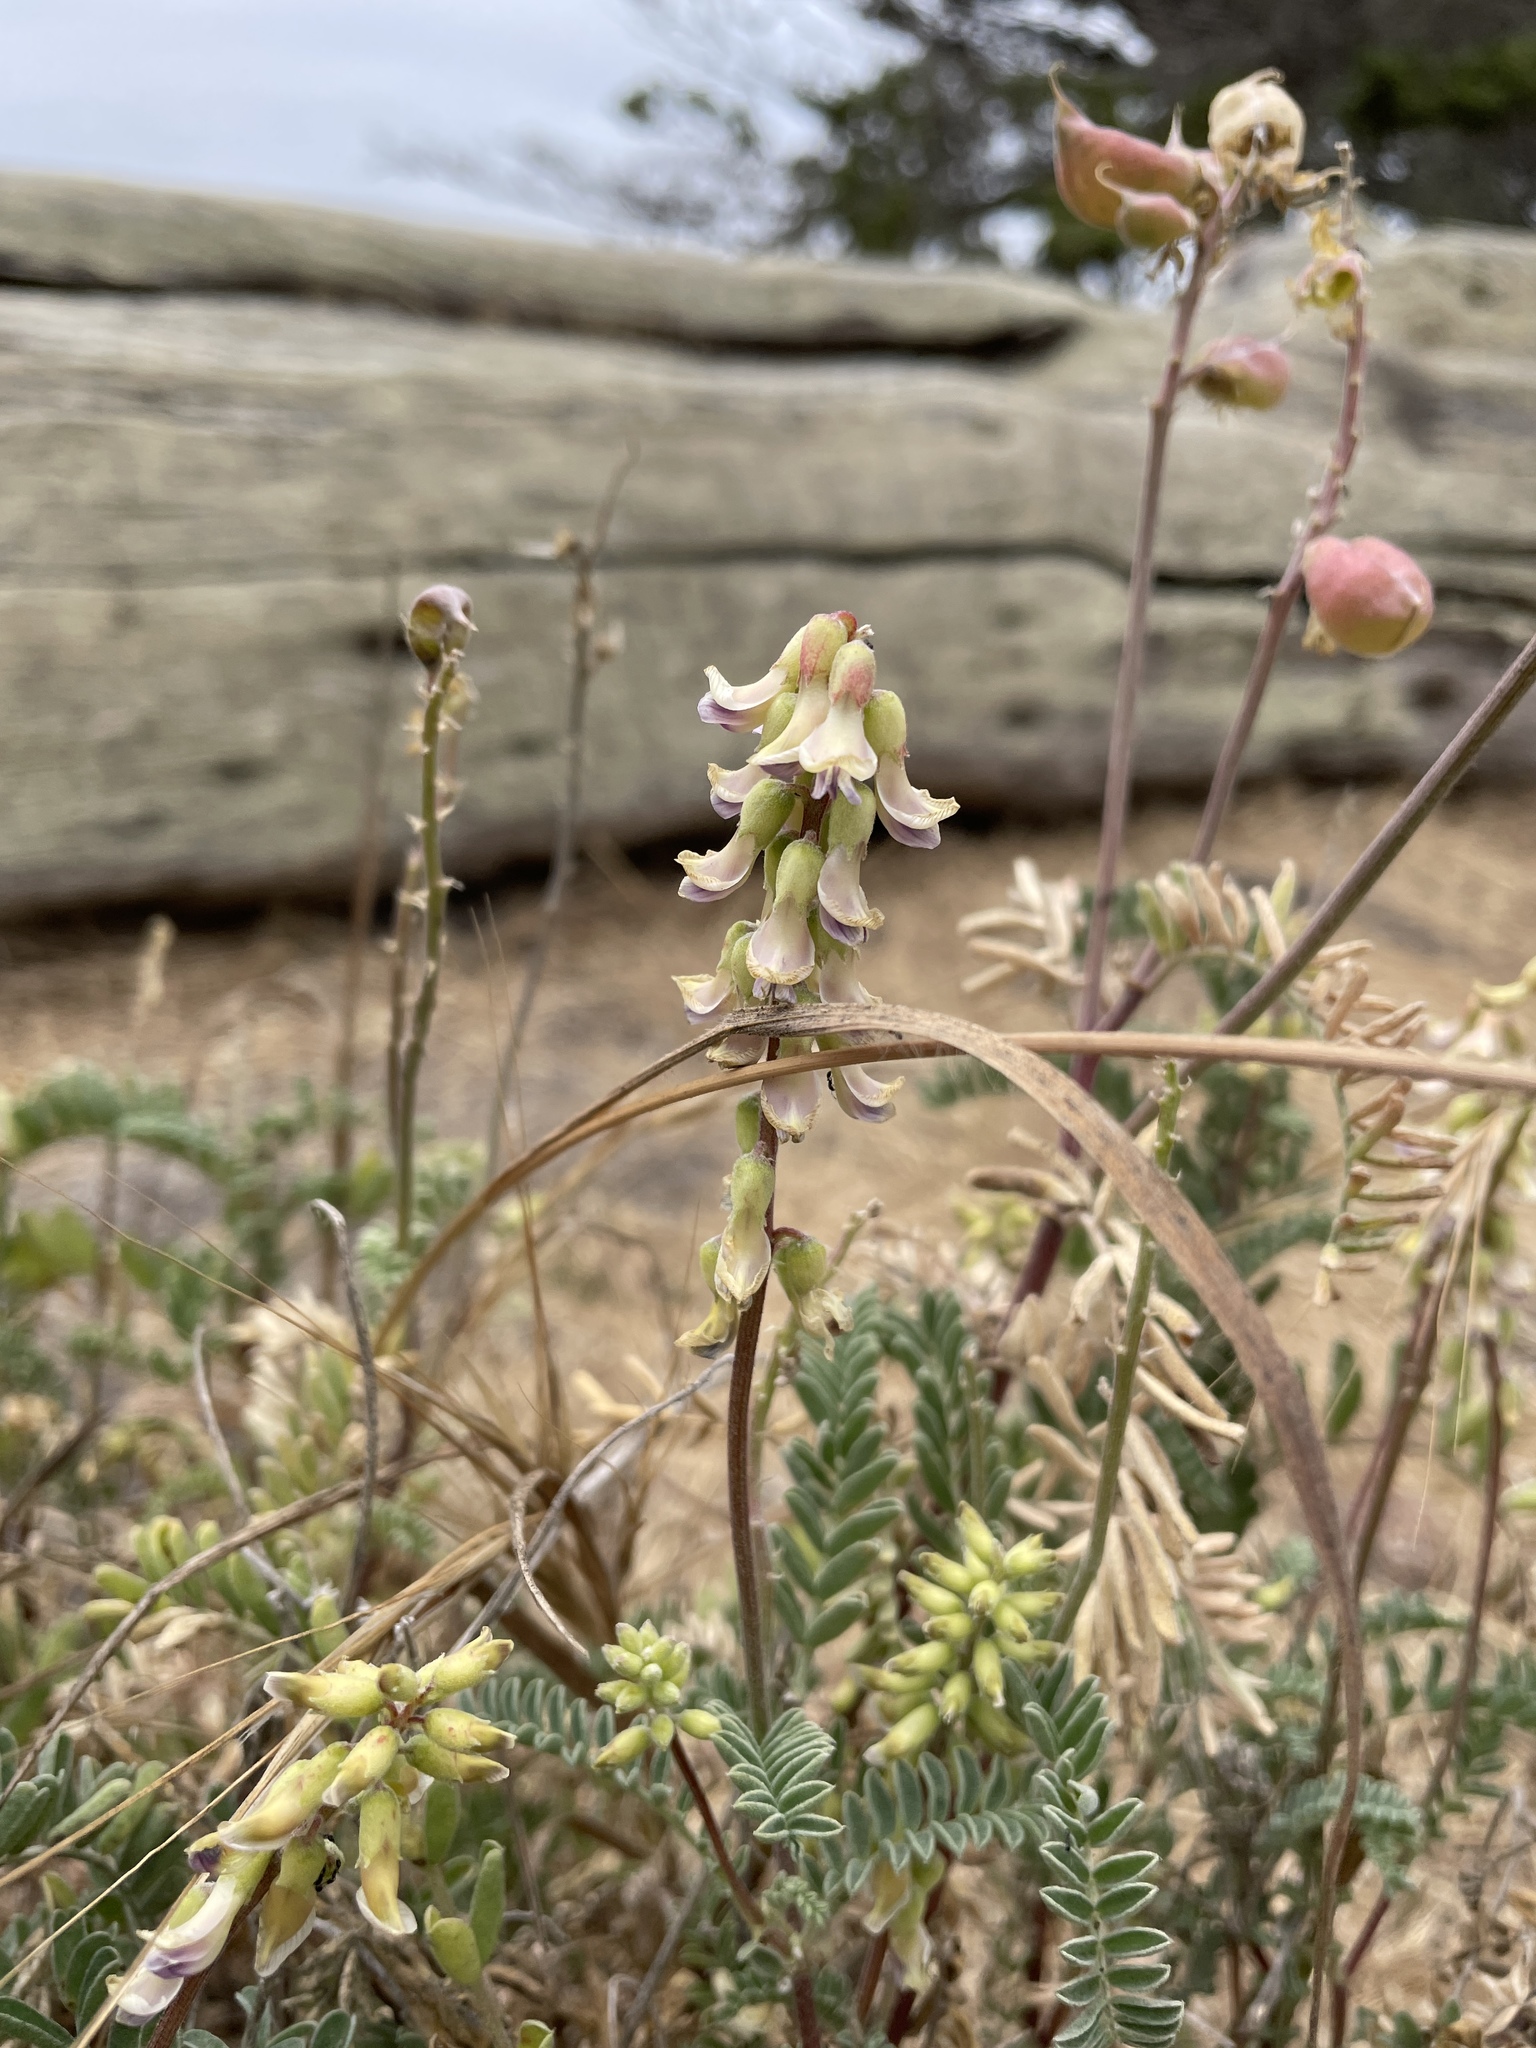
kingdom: Plantae
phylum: Tracheophyta
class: Magnoliopsida
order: Fabales
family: Fabaceae
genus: Astragalus
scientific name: Astragalus nuttallii
